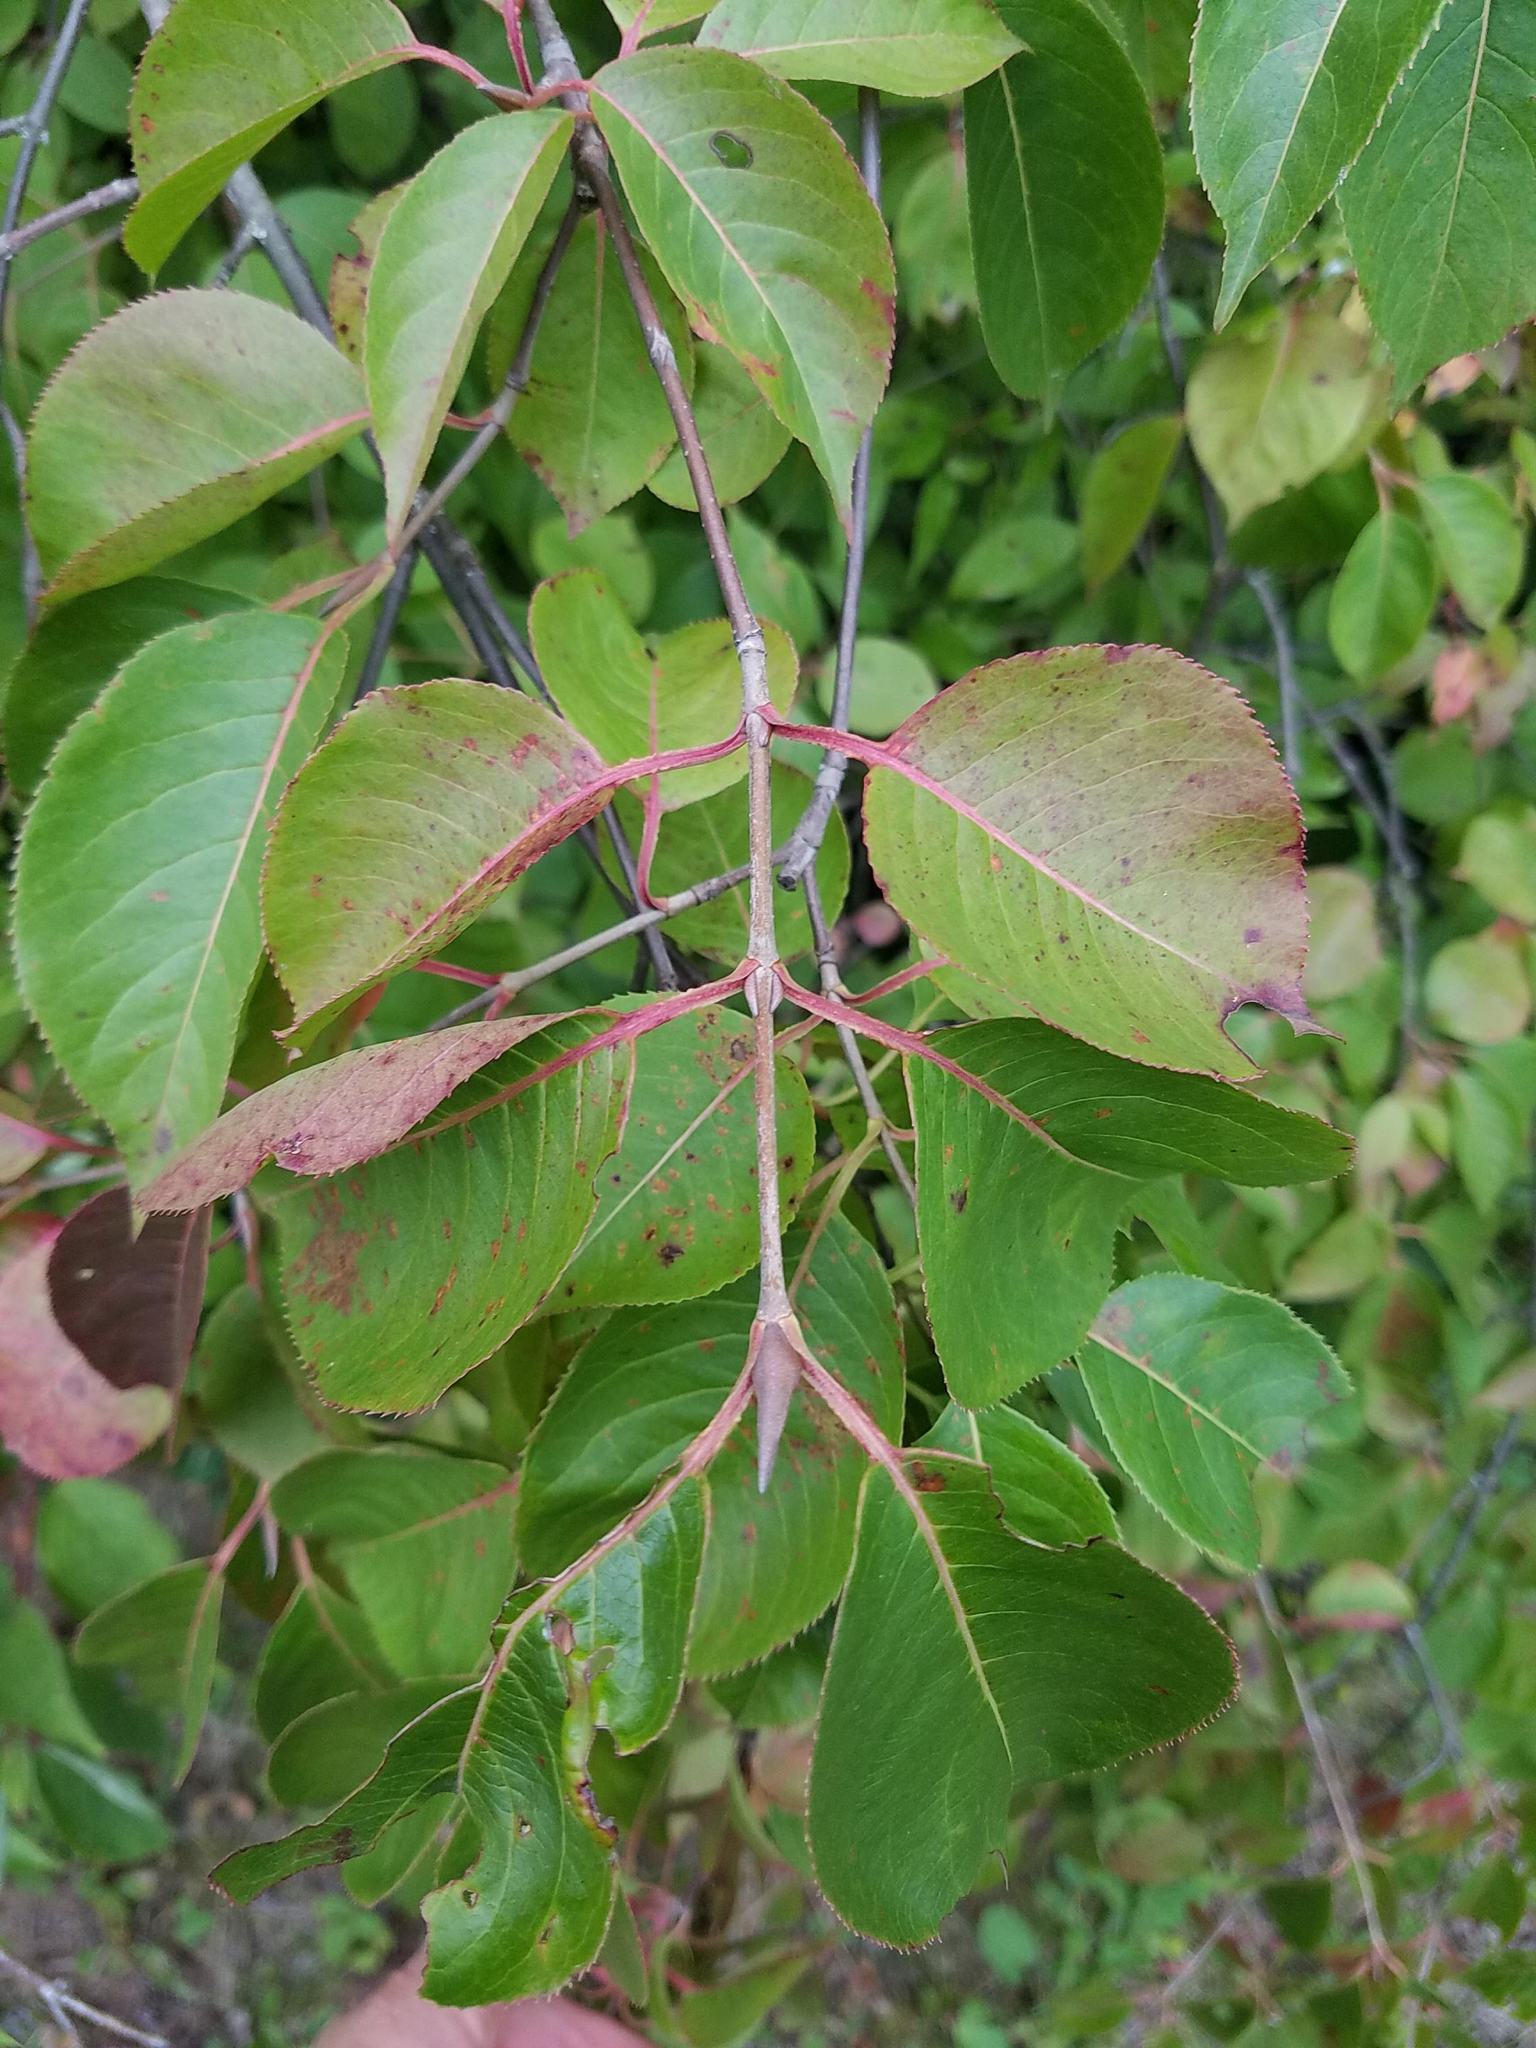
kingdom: Plantae
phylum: Tracheophyta
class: Magnoliopsida
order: Dipsacales
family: Viburnaceae
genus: Viburnum
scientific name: Viburnum lentago
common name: Black haw
